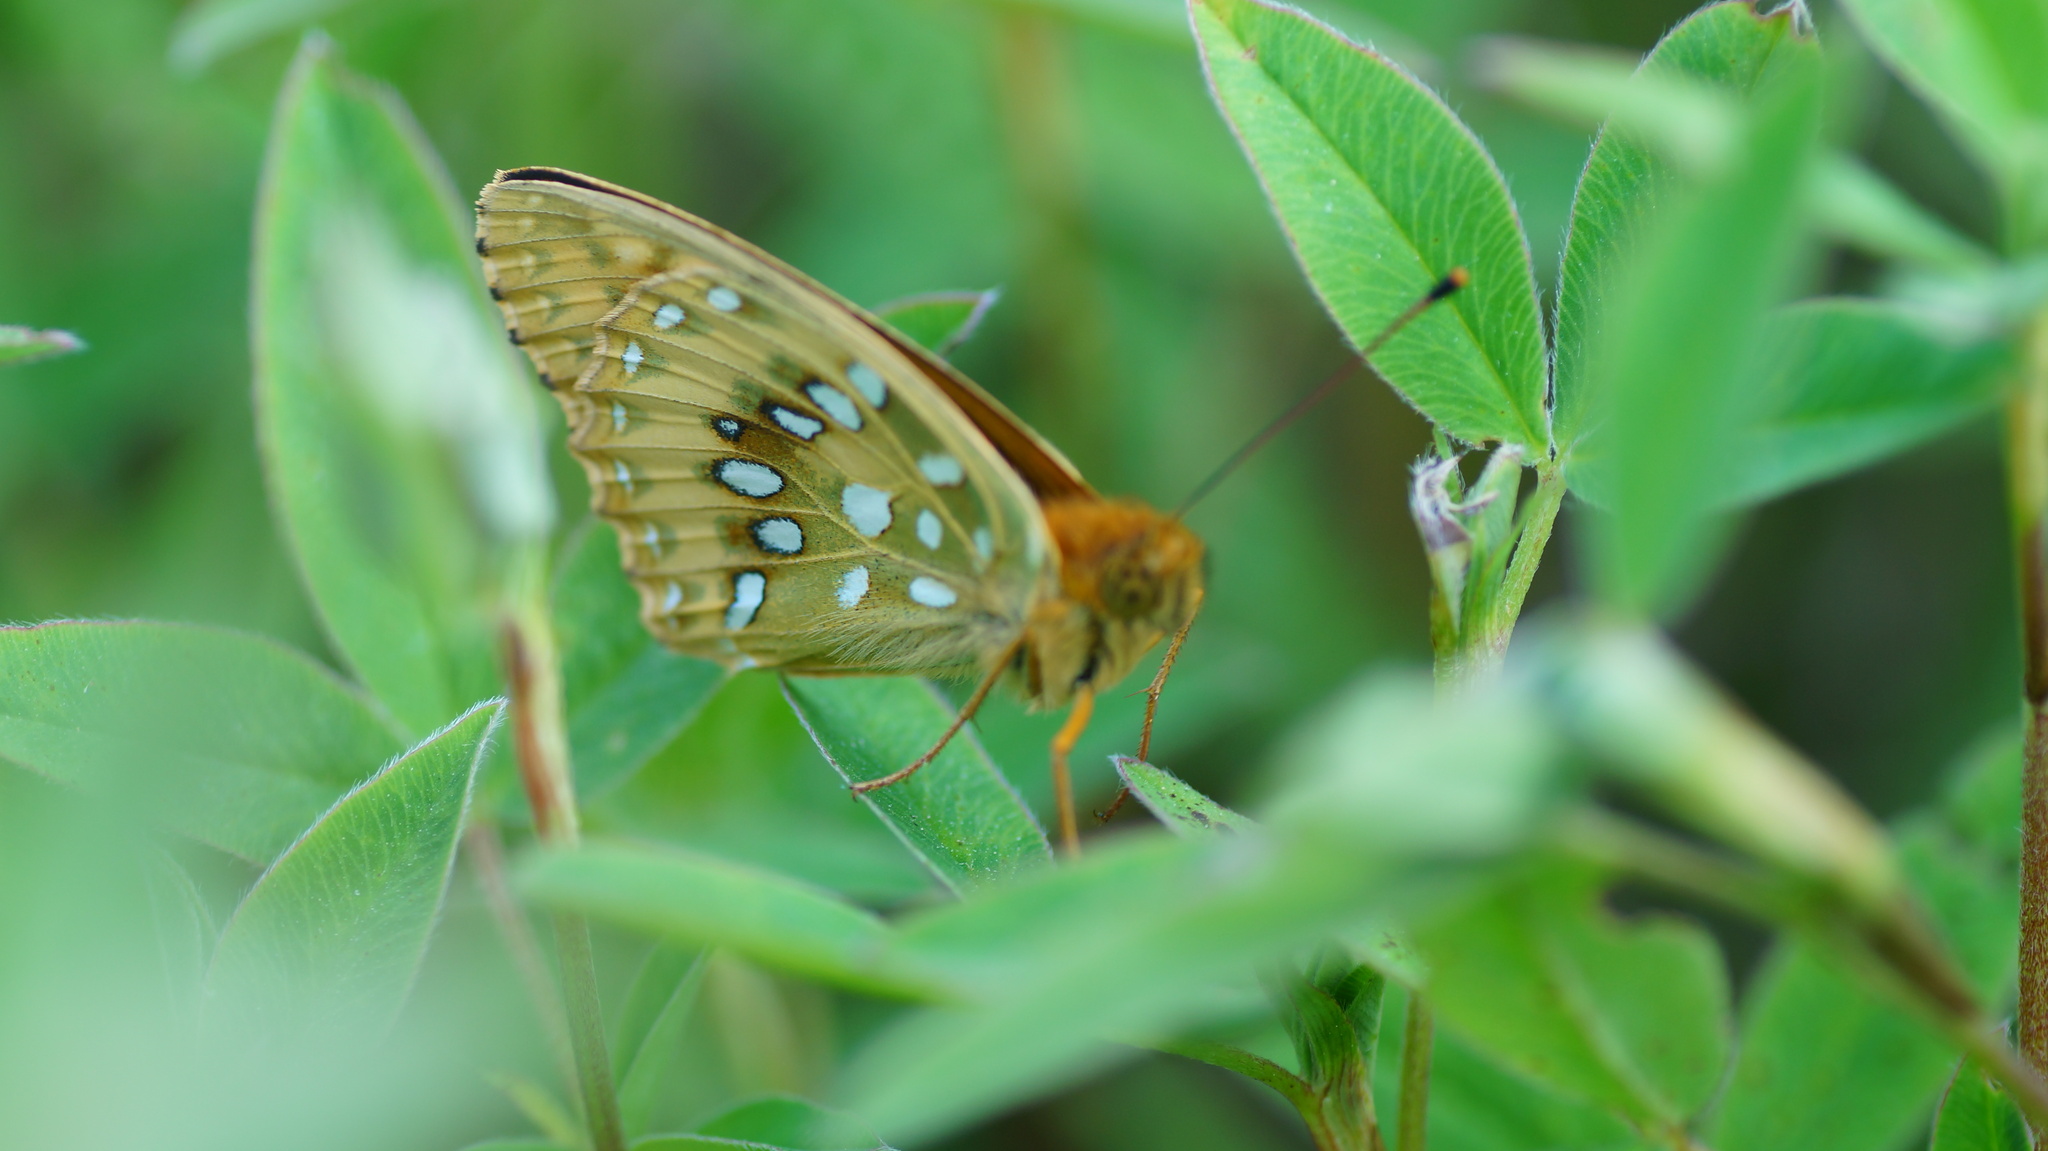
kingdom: Animalia
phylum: Arthropoda
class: Insecta
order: Lepidoptera
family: Nymphalidae
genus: Speyeria
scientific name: Speyeria aglaja
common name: Dark green fritillary
